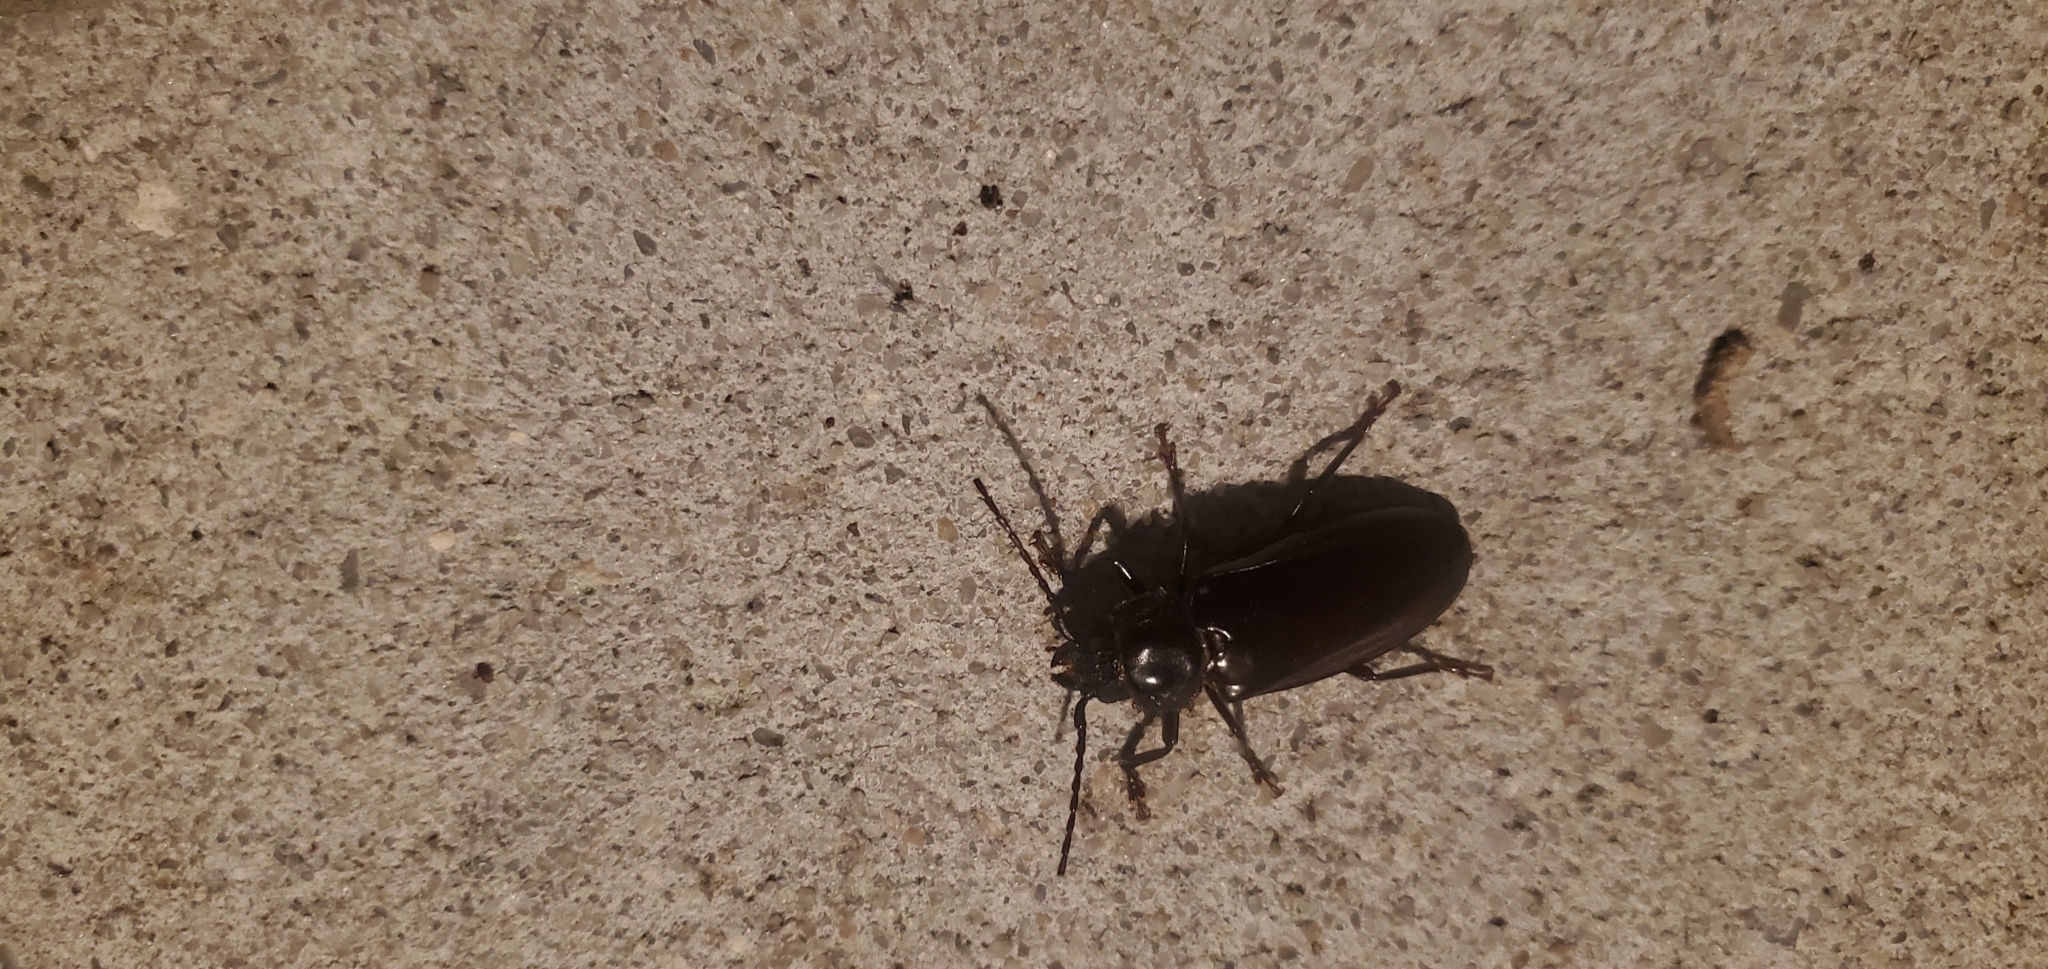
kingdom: Animalia
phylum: Arthropoda
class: Insecta
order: Coleoptera
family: Cerambycidae
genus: Archodontes
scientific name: Archodontes melanopus
